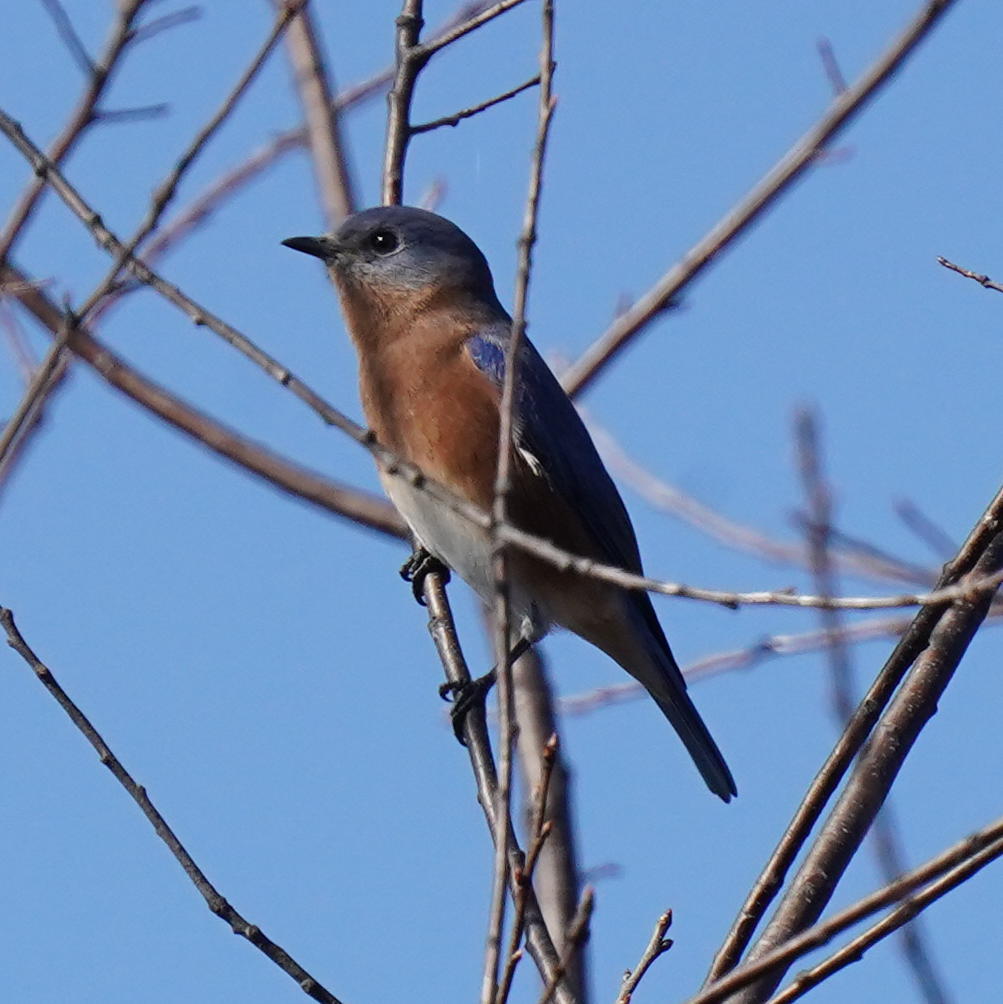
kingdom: Animalia
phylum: Chordata
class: Aves
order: Passeriformes
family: Turdidae
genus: Sialia
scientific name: Sialia sialis
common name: Eastern bluebird
